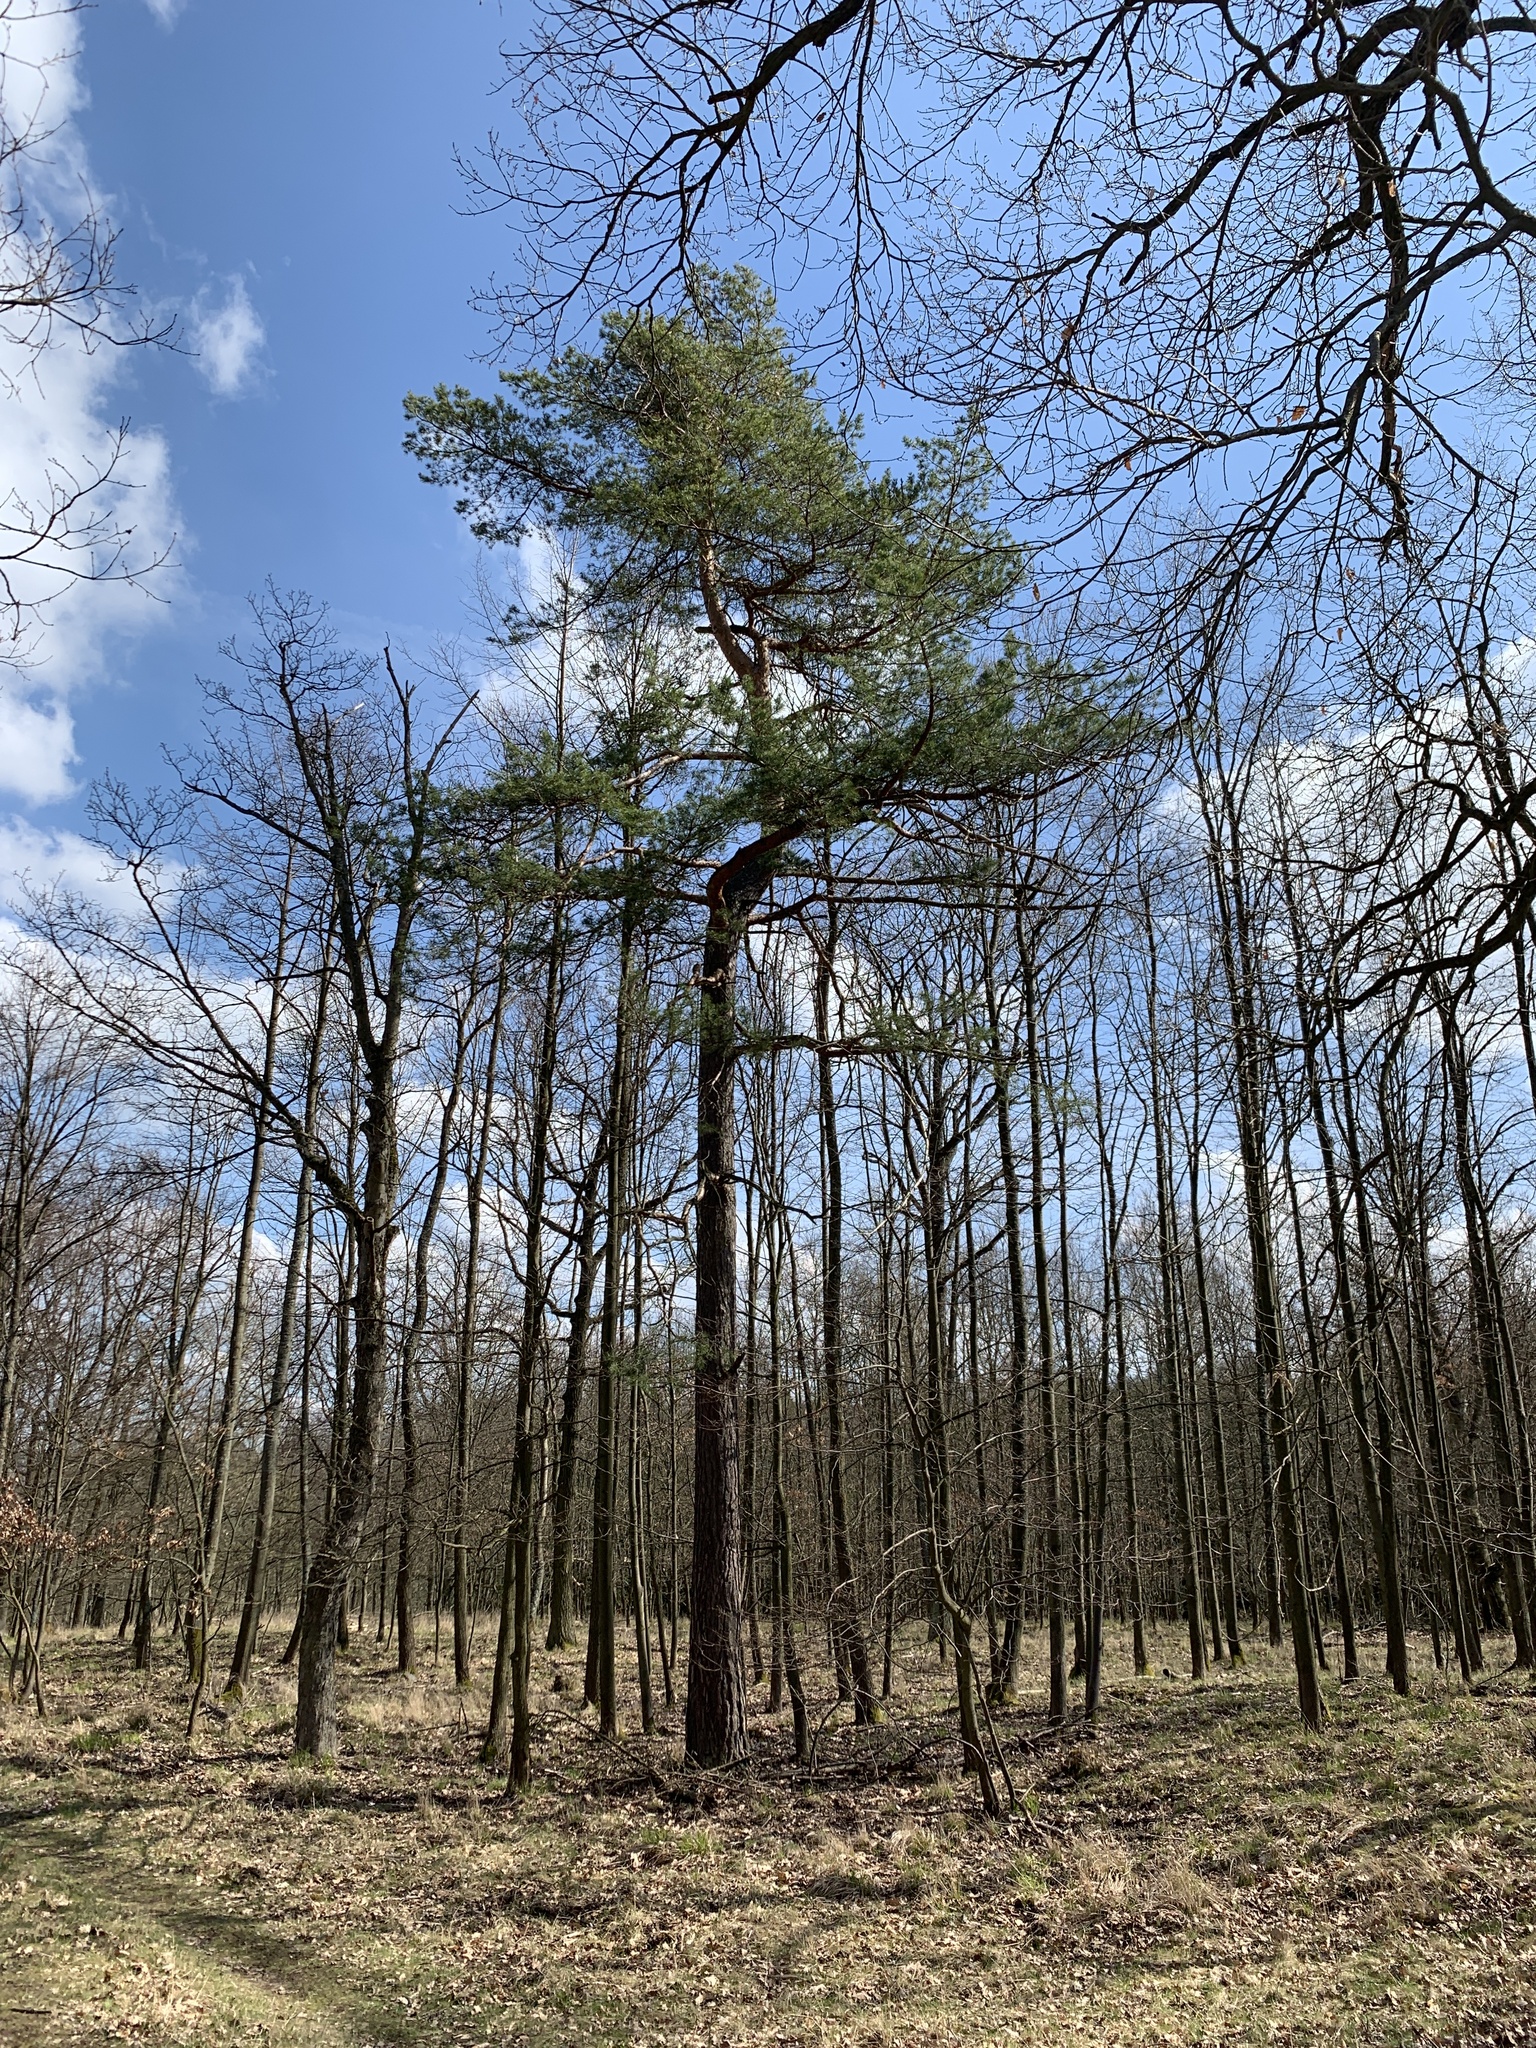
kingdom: Plantae
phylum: Tracheophyta
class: Pinopsida
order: Pinales
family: Pinaceae
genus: Pinus
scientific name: Pinus sylvestris
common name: Scots pine
